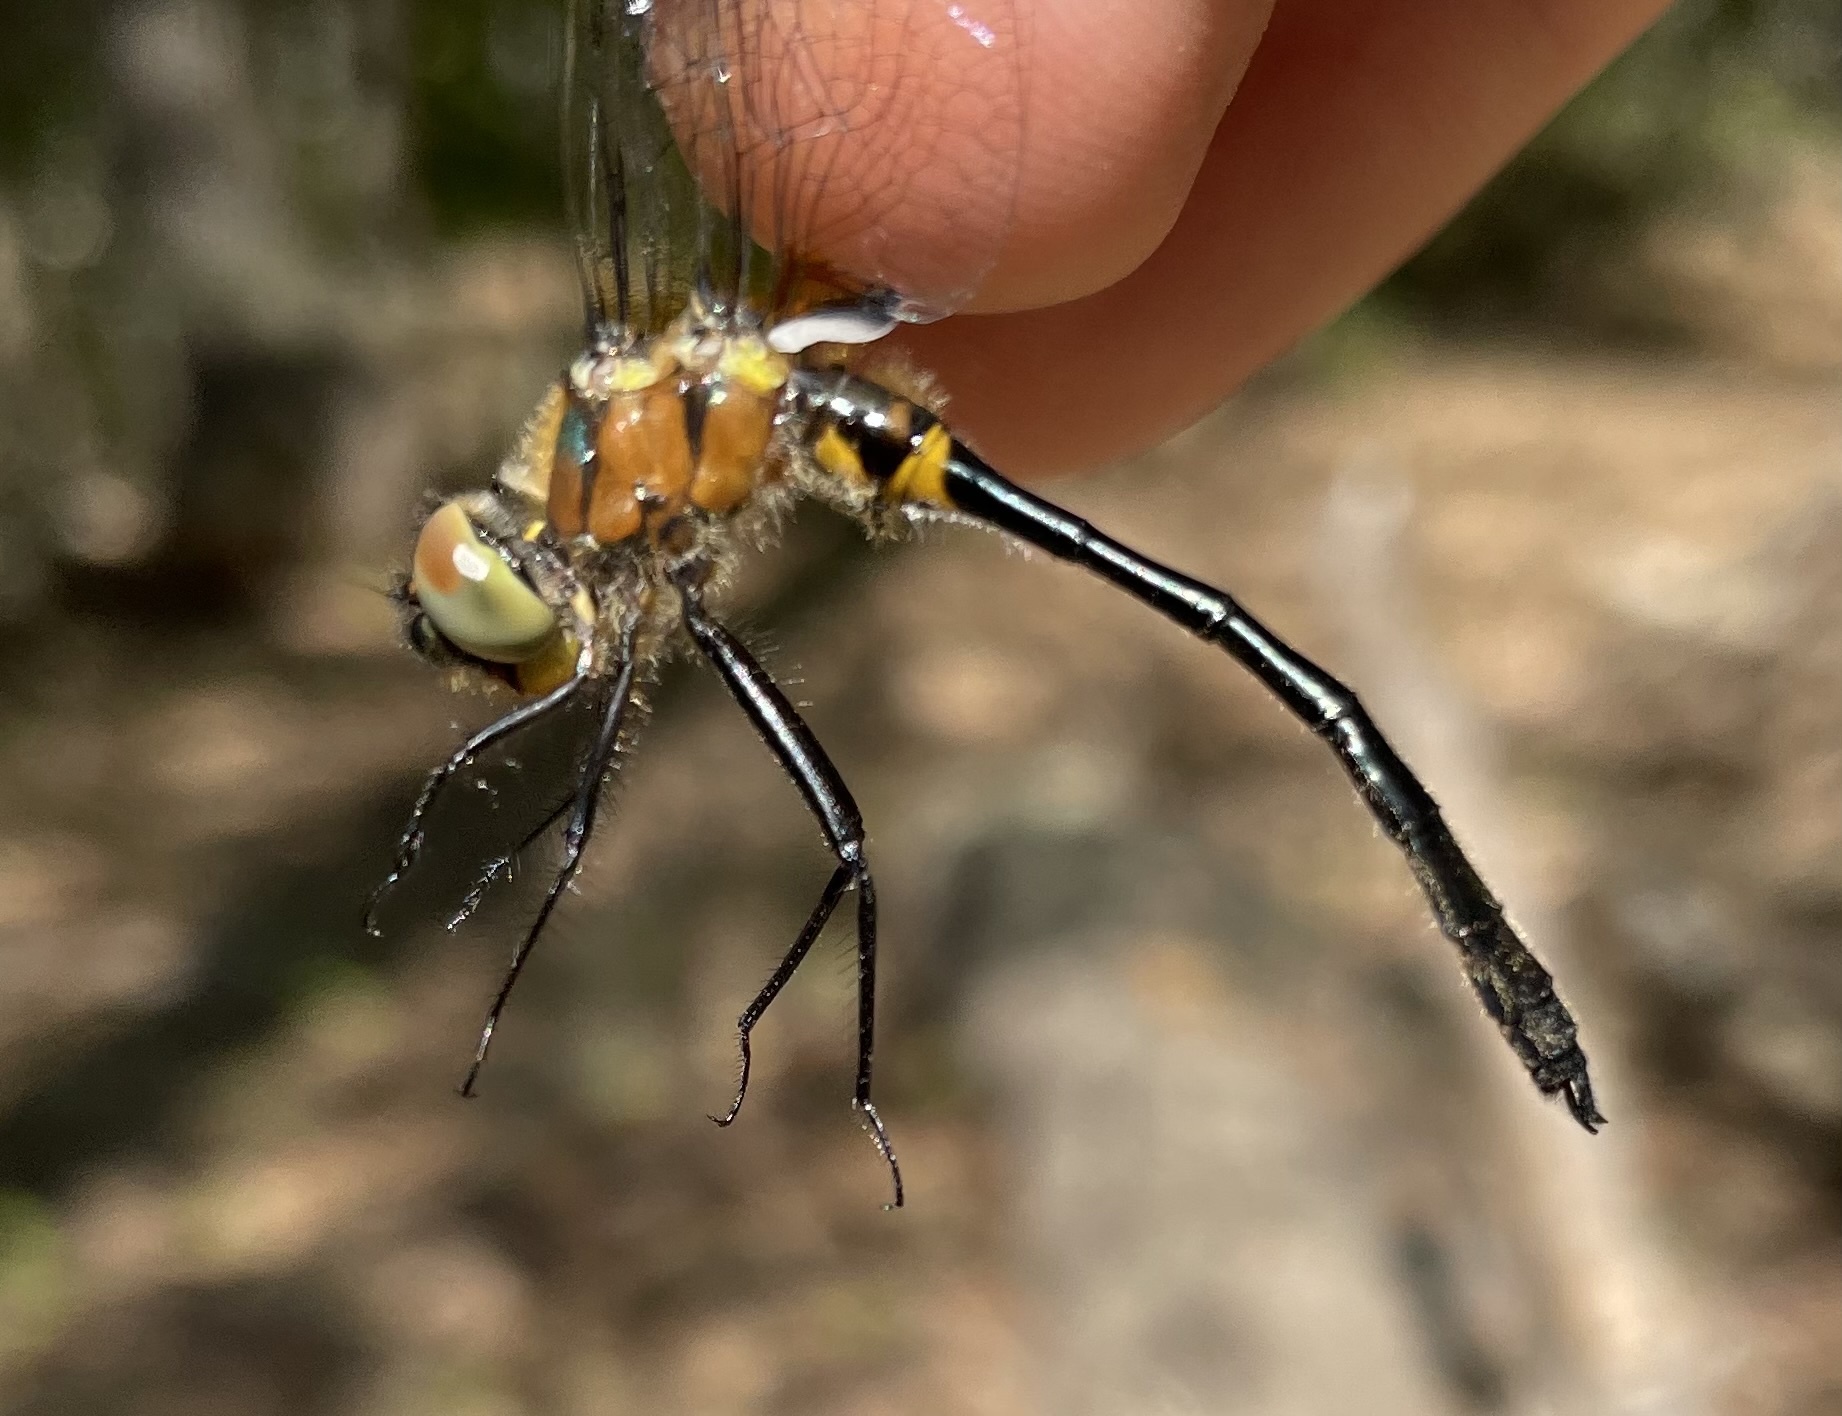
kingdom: Animalia
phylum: Arthropoda
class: Insecta
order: Odonata
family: Corduliidae
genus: Dorocordulia
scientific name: Dorocordulia libera
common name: Racket-tailed emerald
